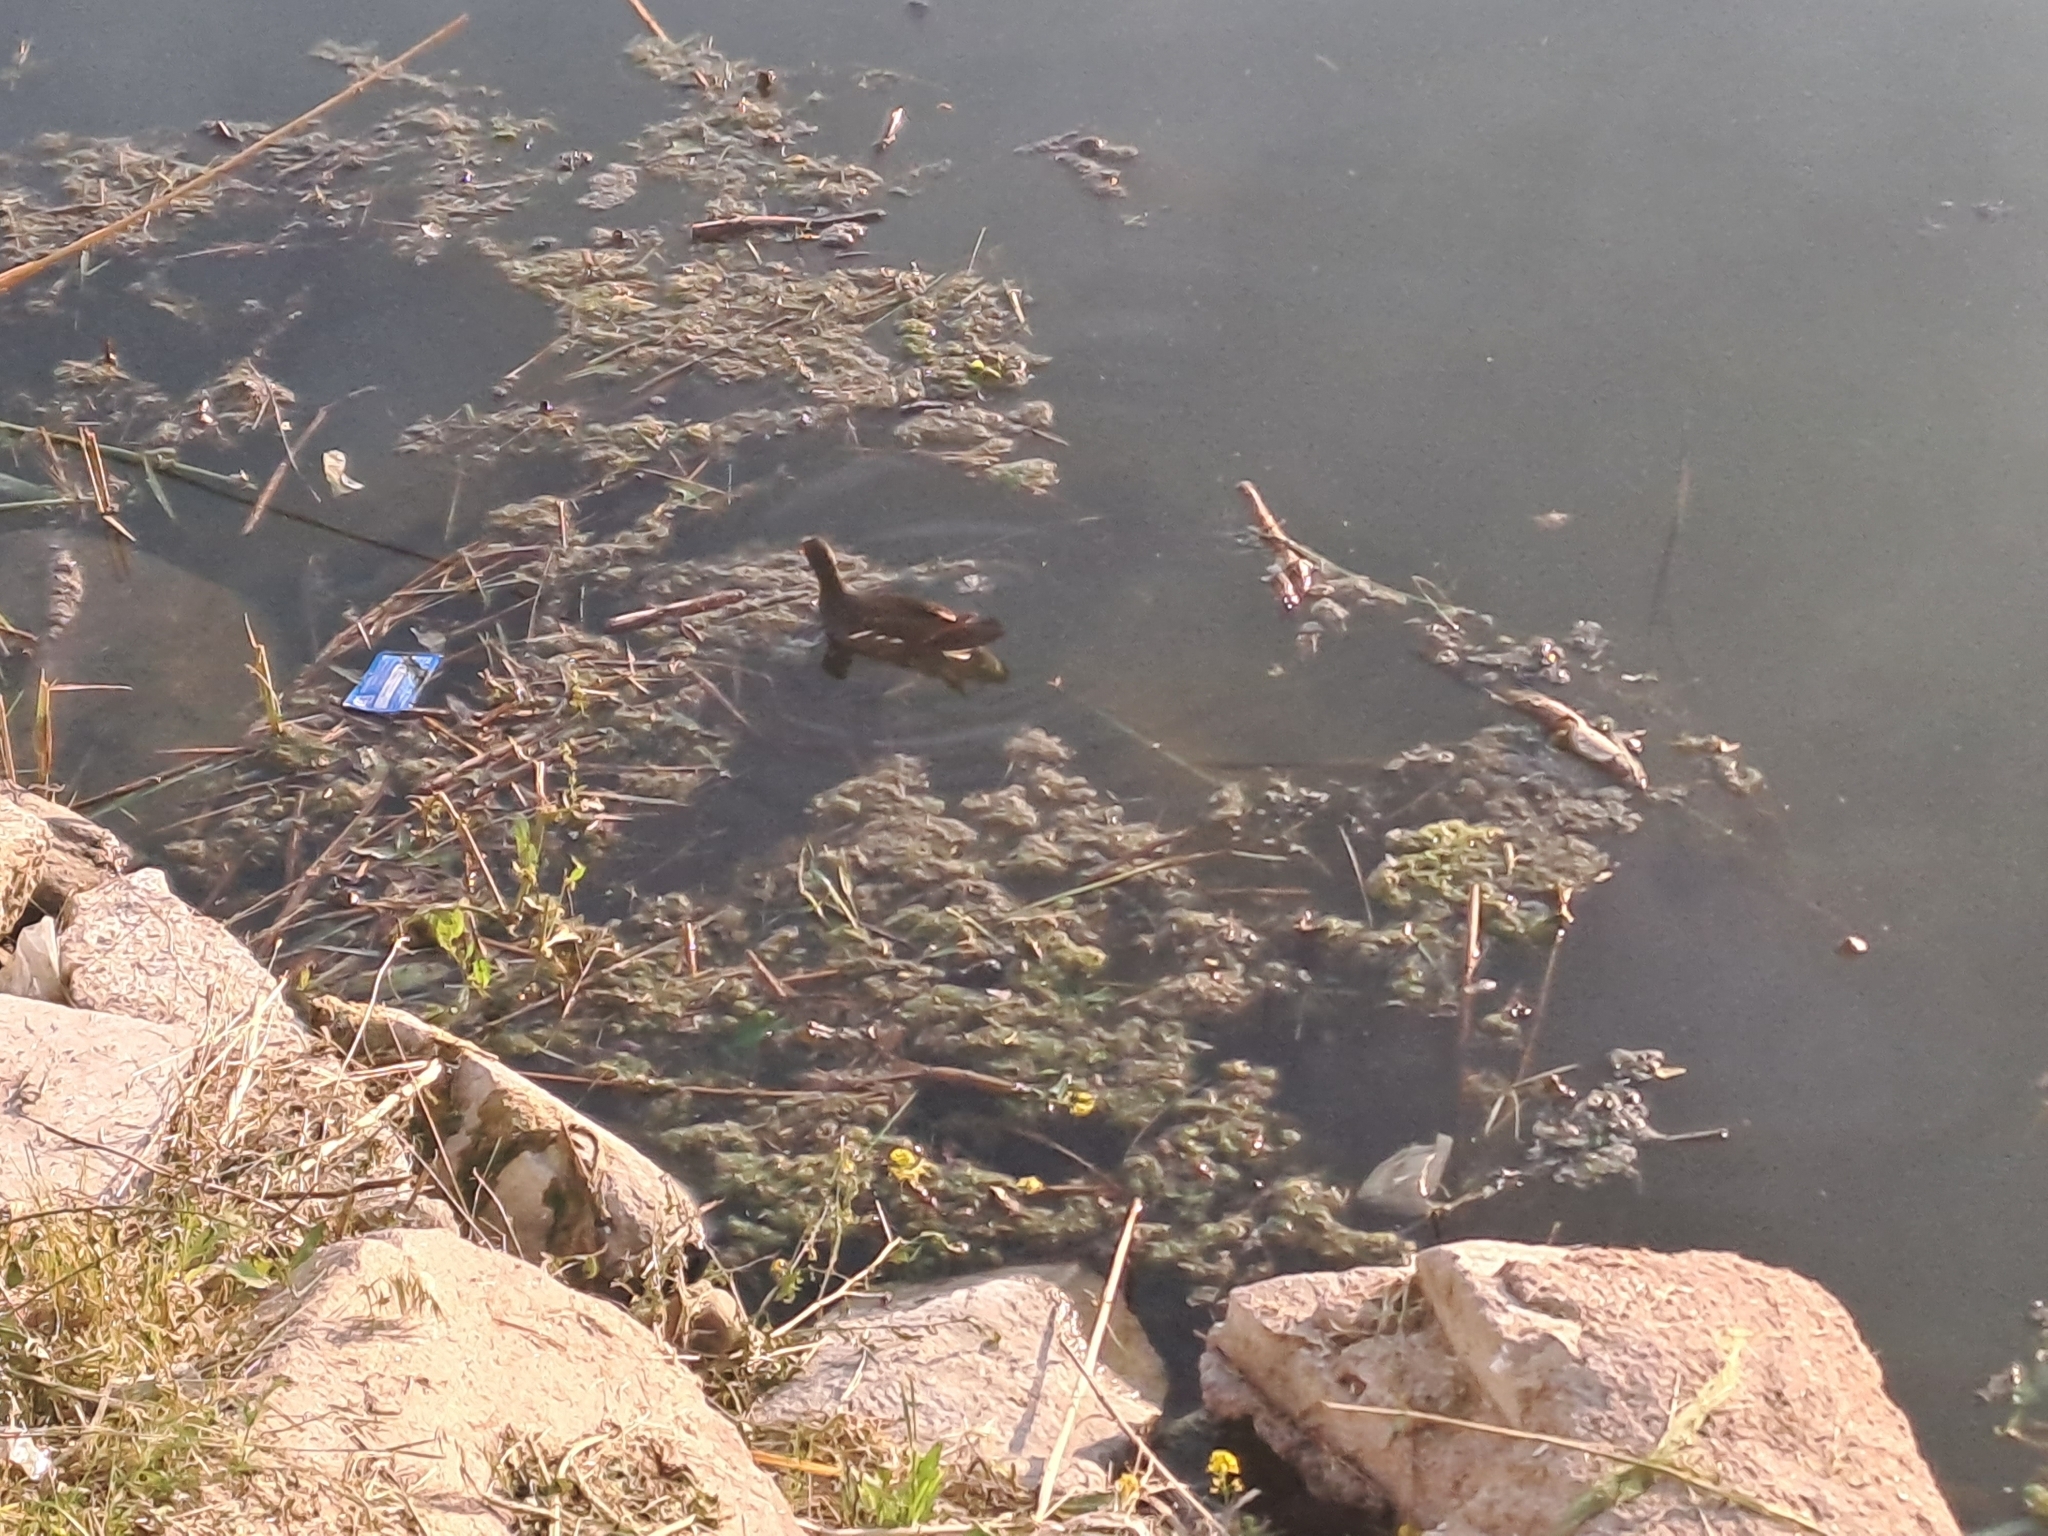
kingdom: Animalia
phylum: Chordata
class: Aves
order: Gruiformes
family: Rallidae
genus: Gallinula
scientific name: Gallinula chloropus
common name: Common moorhen
